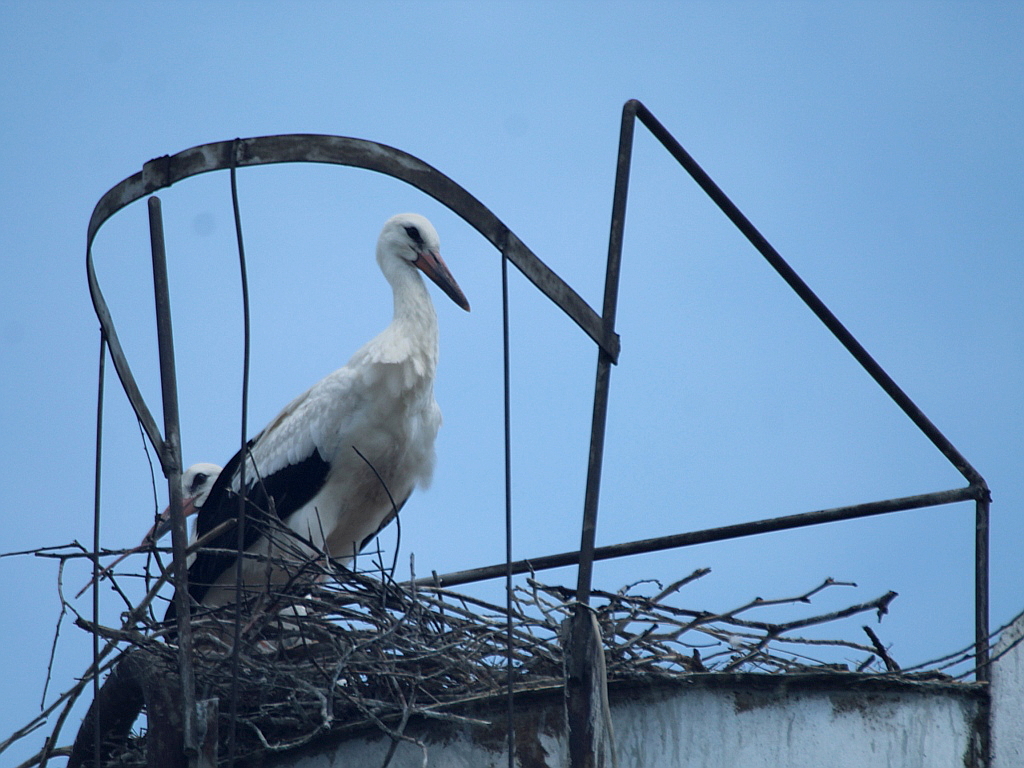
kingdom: Animalia
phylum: Chordata
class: Aves
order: Ciconiiformes
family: Ciconiidae
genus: Ciconia
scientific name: Ciconia ciconia
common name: White stork
